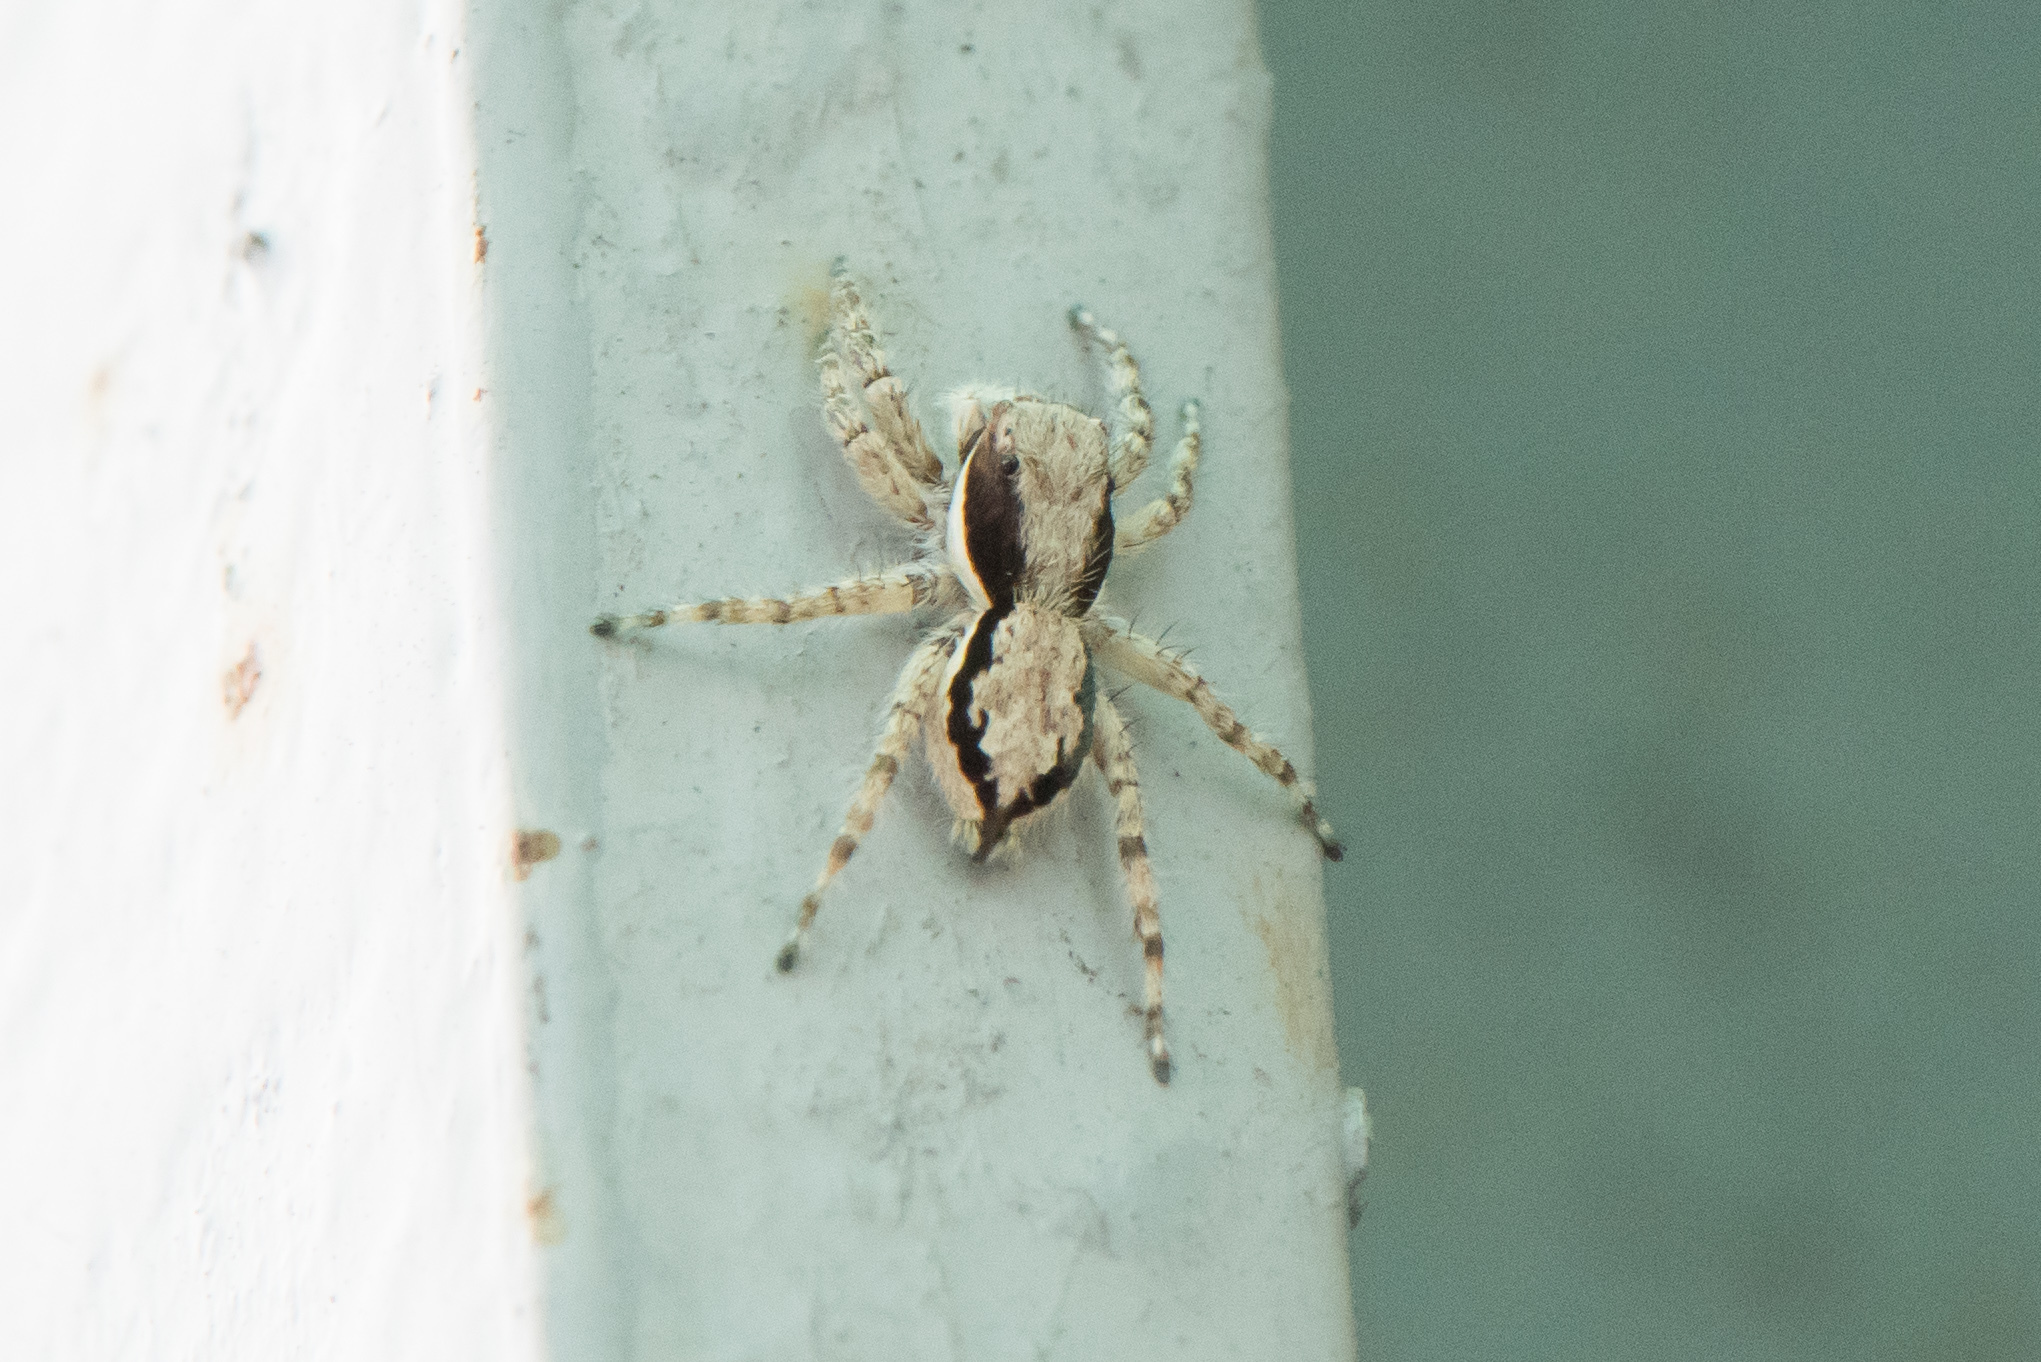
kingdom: Animalia
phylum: Arthropoda
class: Arachnida
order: Araneae
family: Salticidae
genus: Menemerus
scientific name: Menemerus bivittatus
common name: Gray wall jumper
